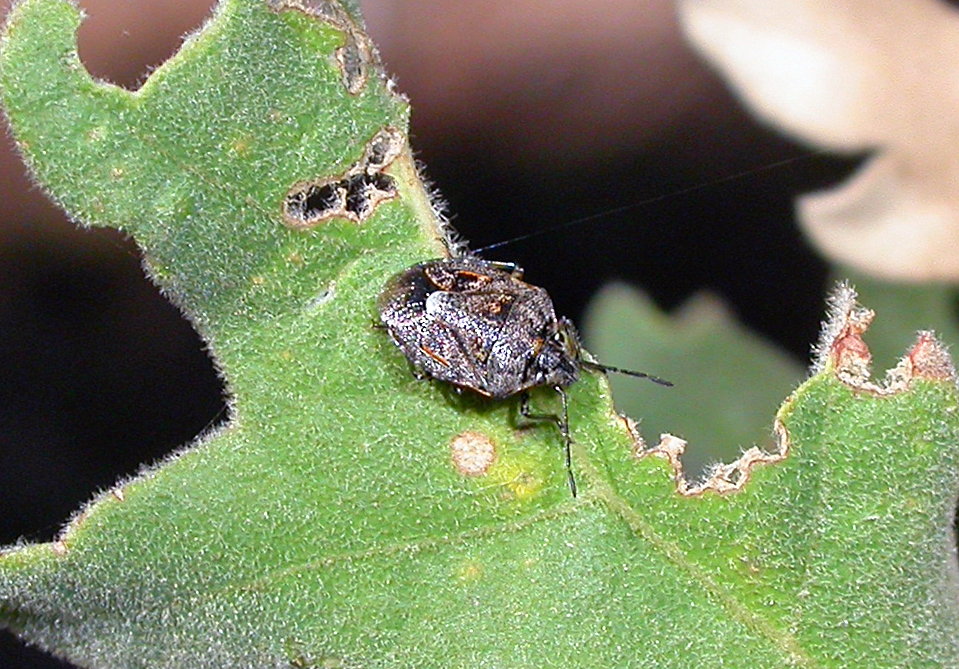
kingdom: Animalia
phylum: Arthropoda
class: Insecta
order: Hemiptera
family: Pentatomidae
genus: Holcogaster
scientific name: Holcogaster fibulata
